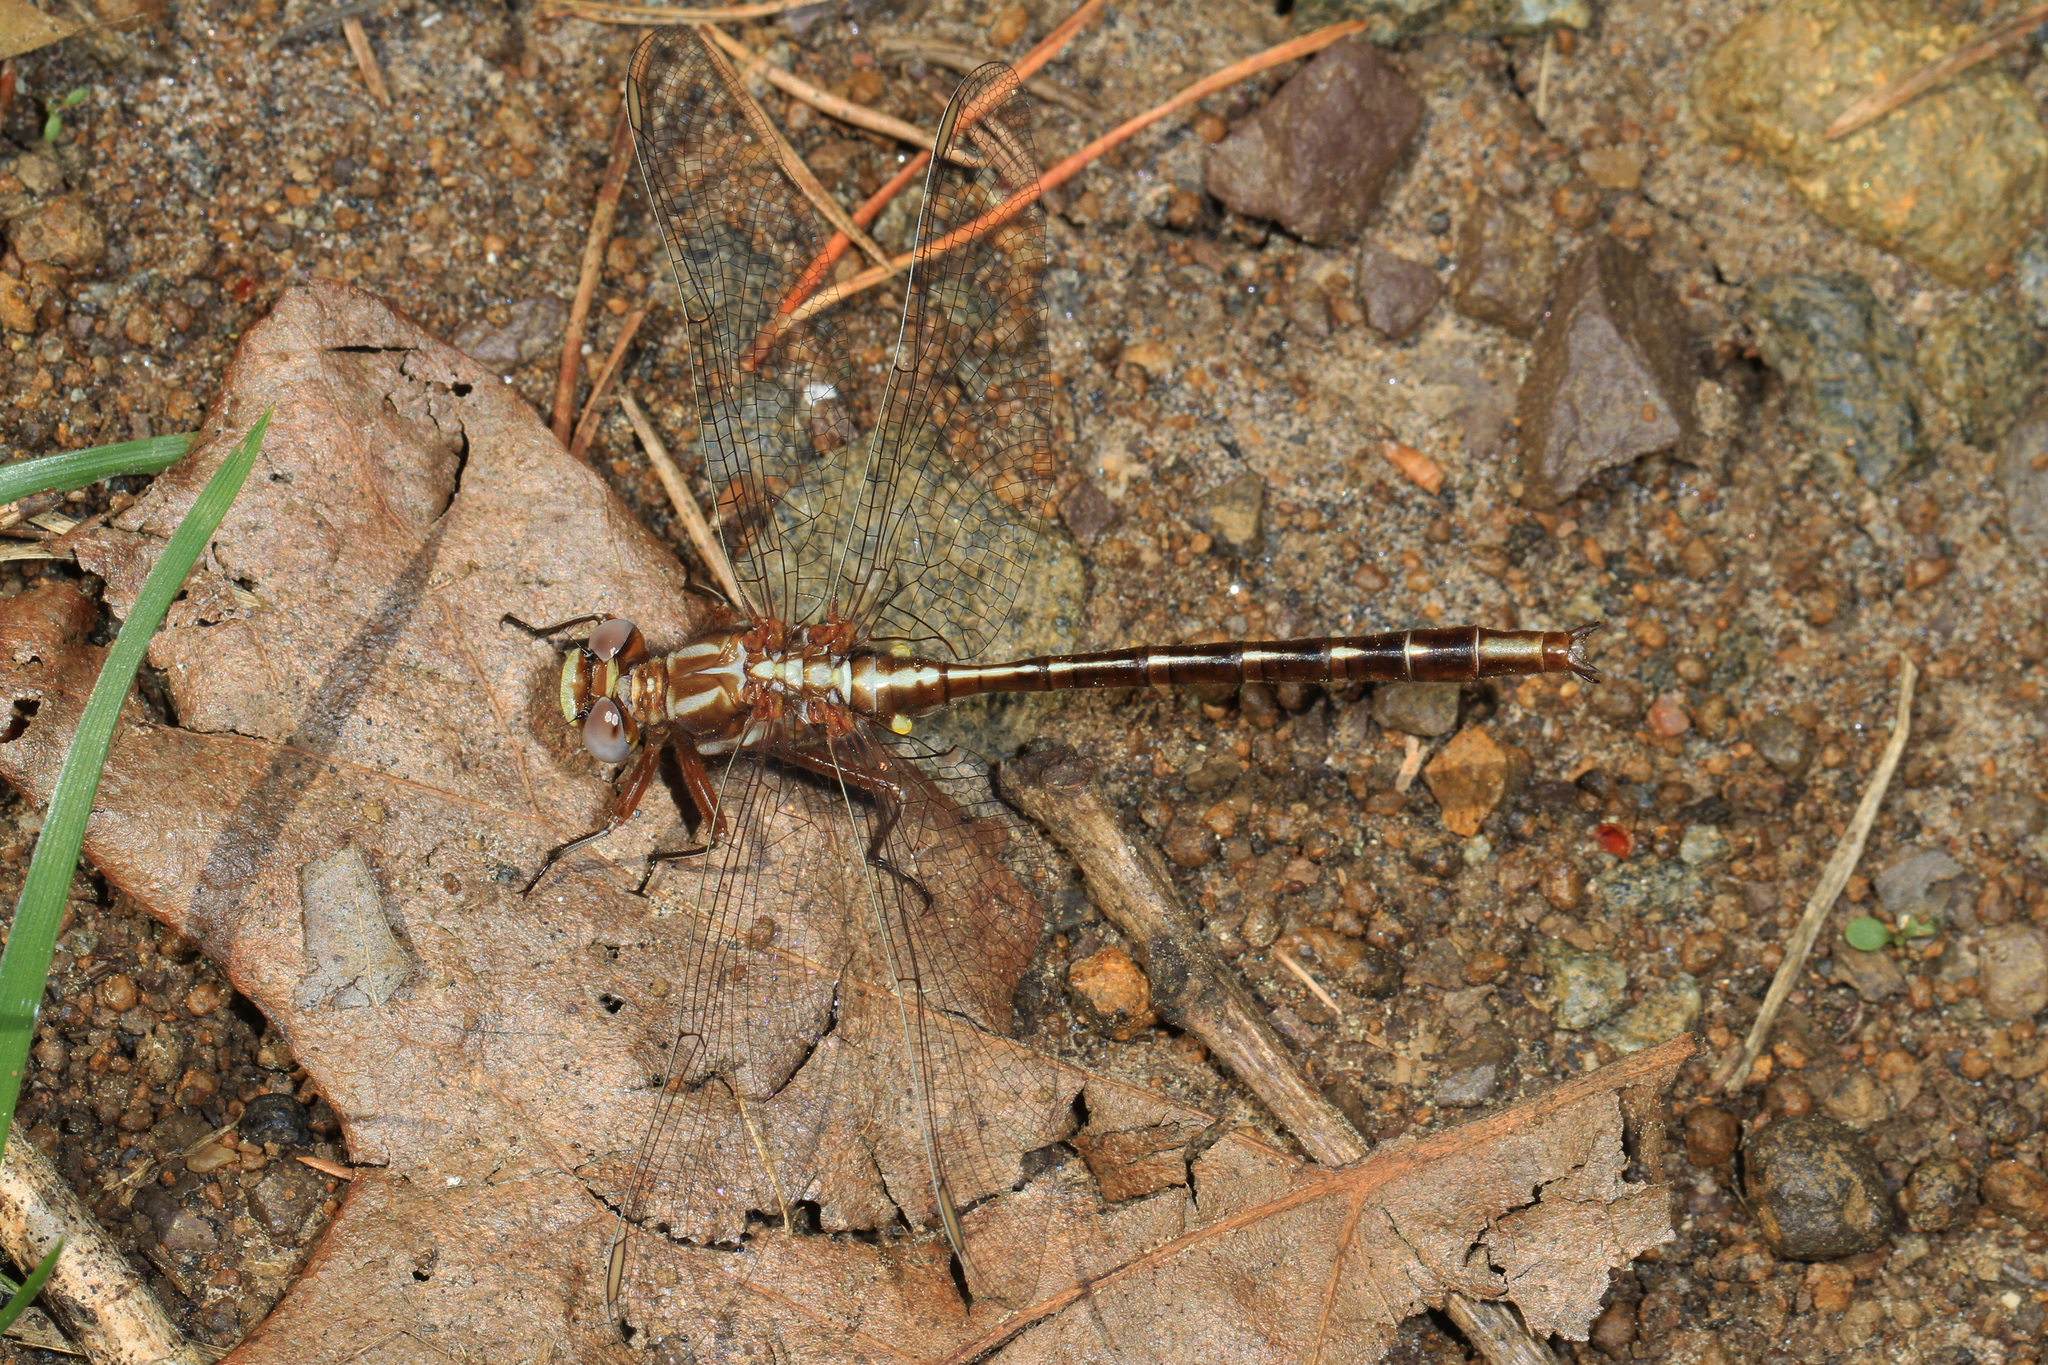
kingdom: Animalia
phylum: Arthropoda
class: Insecta
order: Odonata
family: Gomphidae
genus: Phanogomphus
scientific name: Phanogomphus exilis
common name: Lancet clubtail
